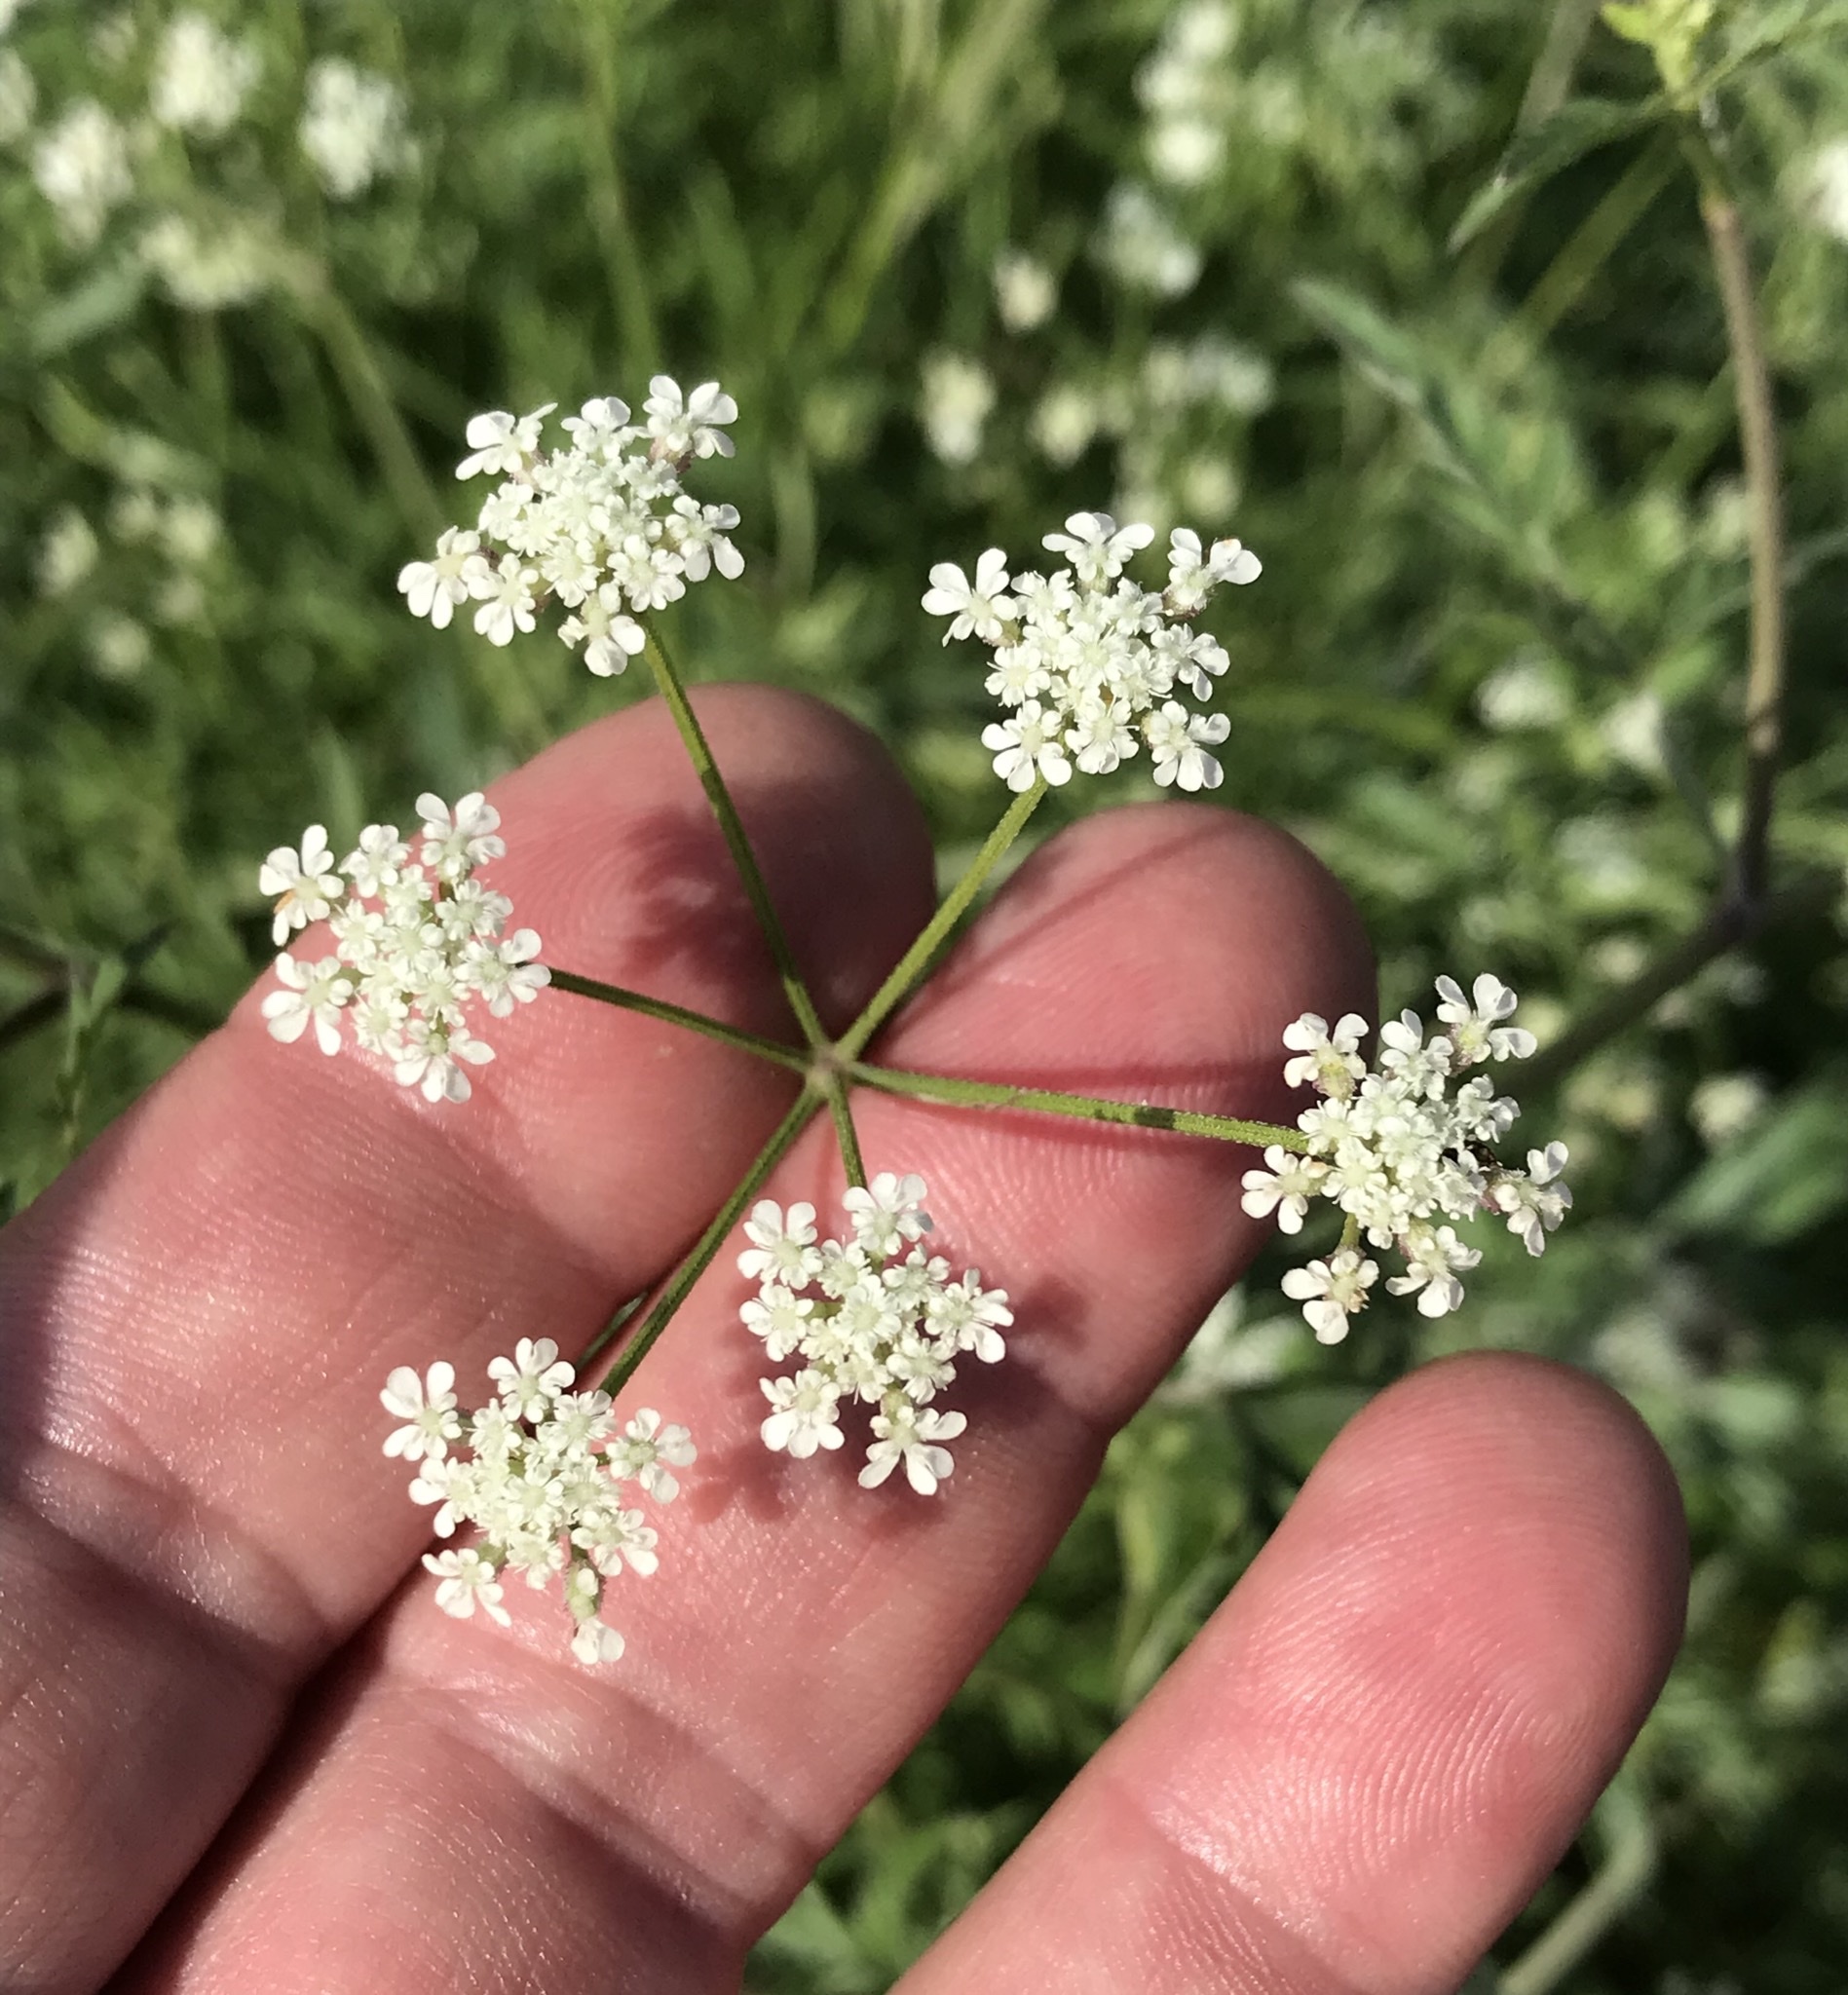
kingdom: Plantae
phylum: Tracheophyta
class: Magnoliopsida
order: Apiales
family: Apiaceae
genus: Torilis
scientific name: Torilis arvensis
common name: Spreading hedge-parsley
